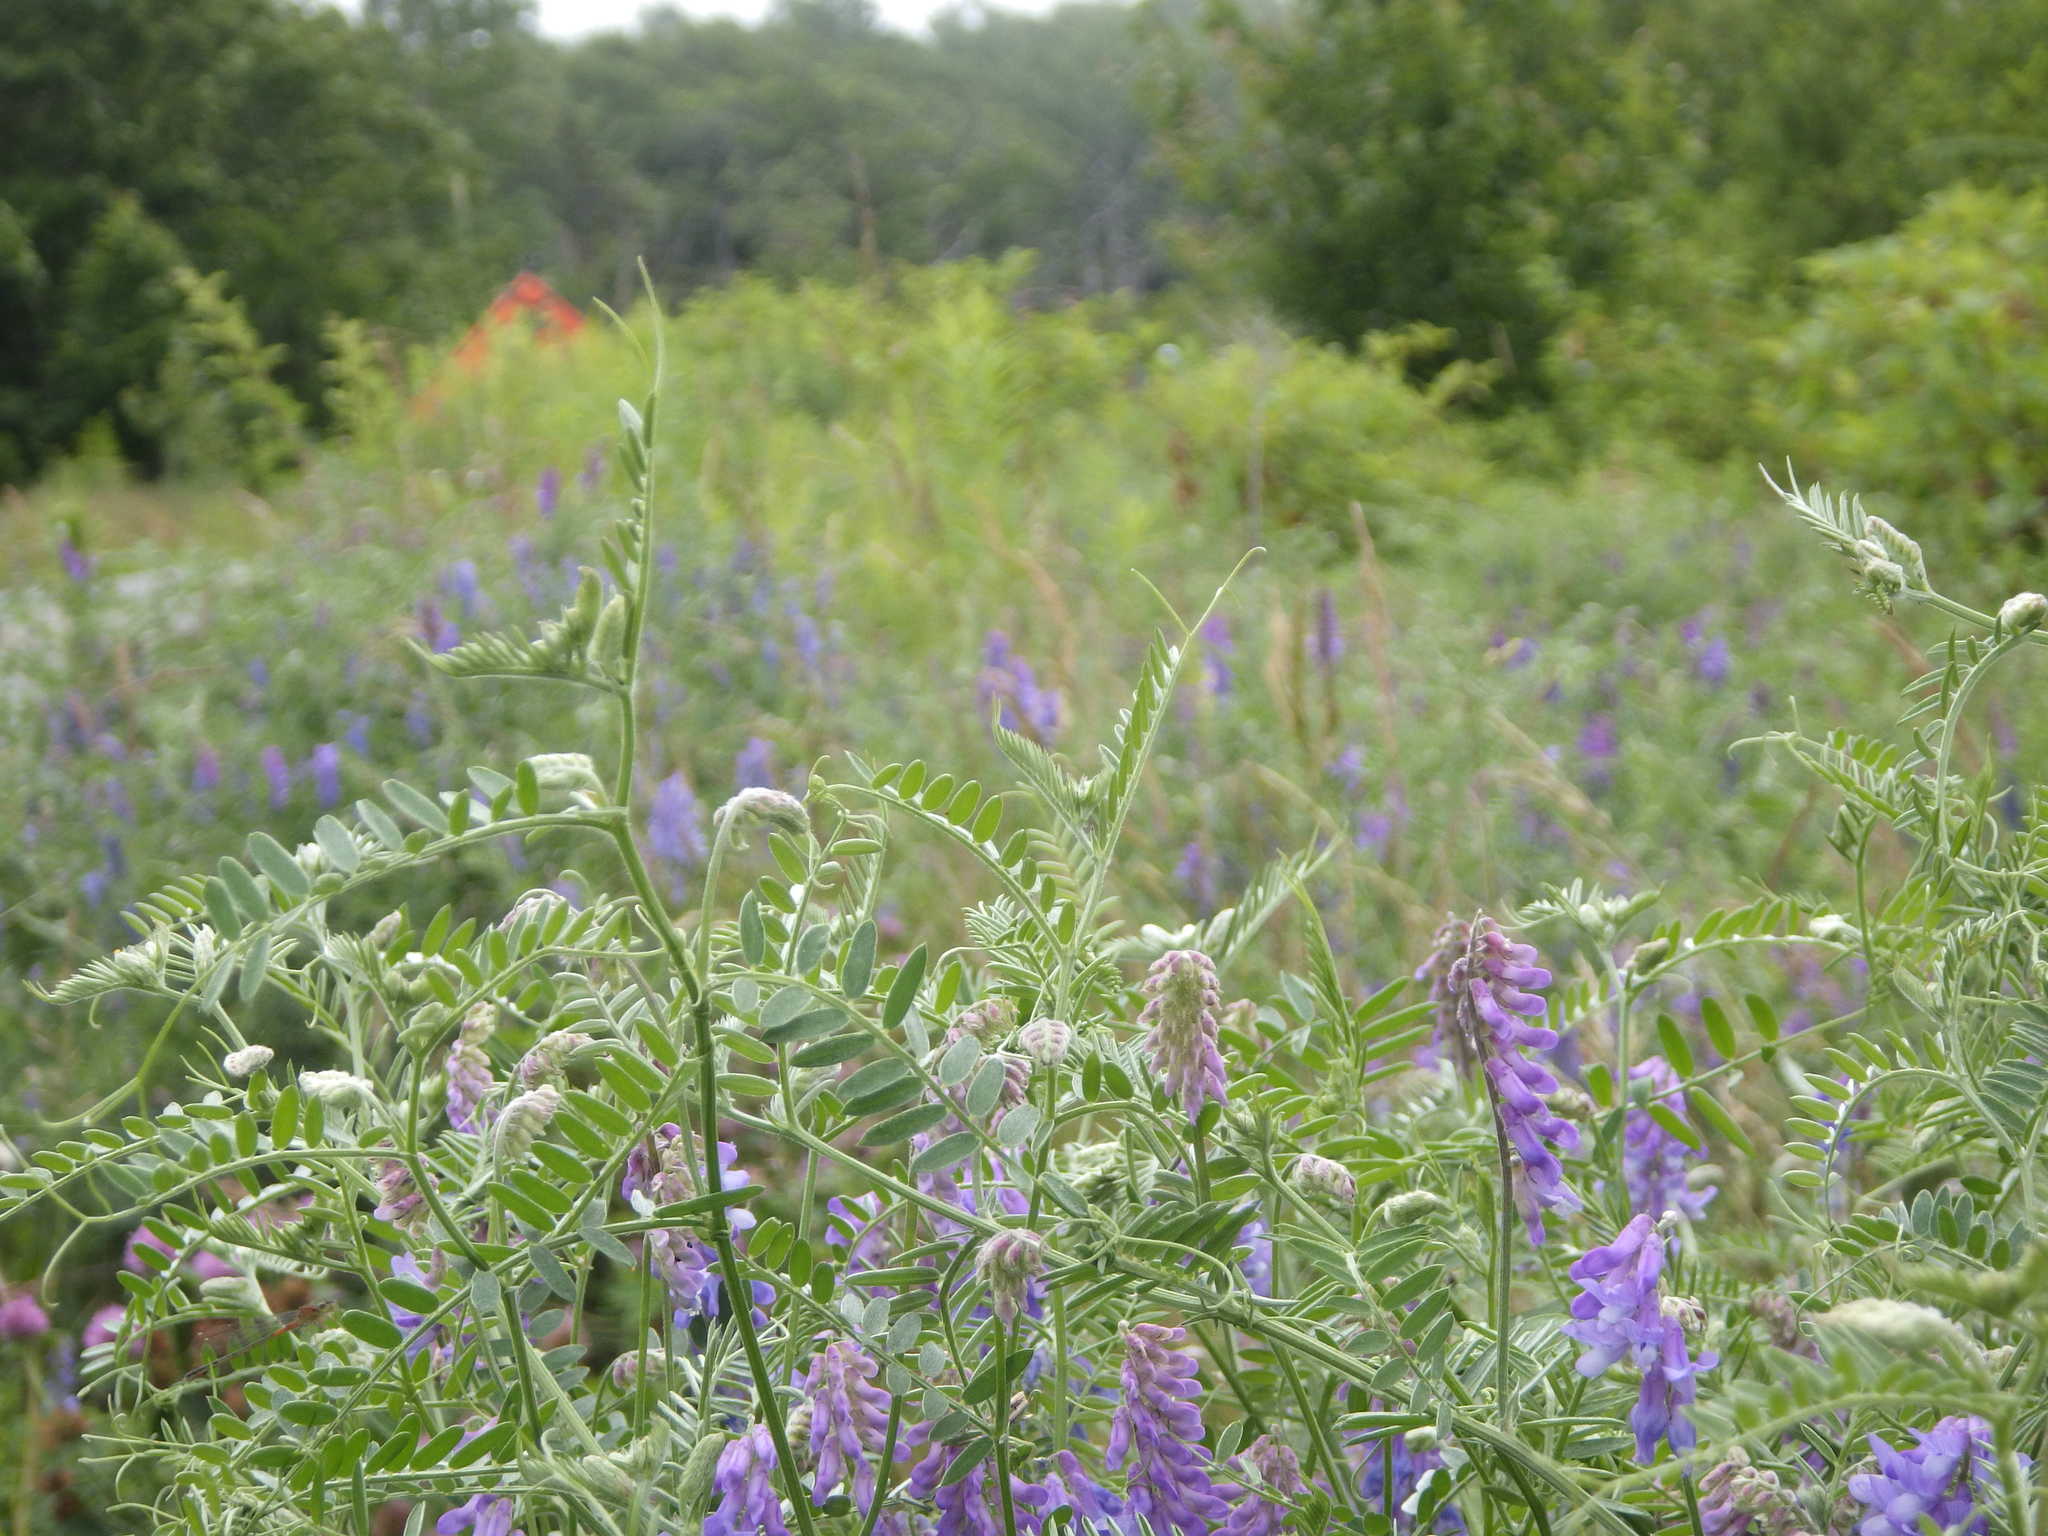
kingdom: Plantae
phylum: Tracheophyta
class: Magnoliopsida
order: Fabales
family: Fabaceae
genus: Vicia
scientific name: Vicia cracca
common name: Bird vetch
